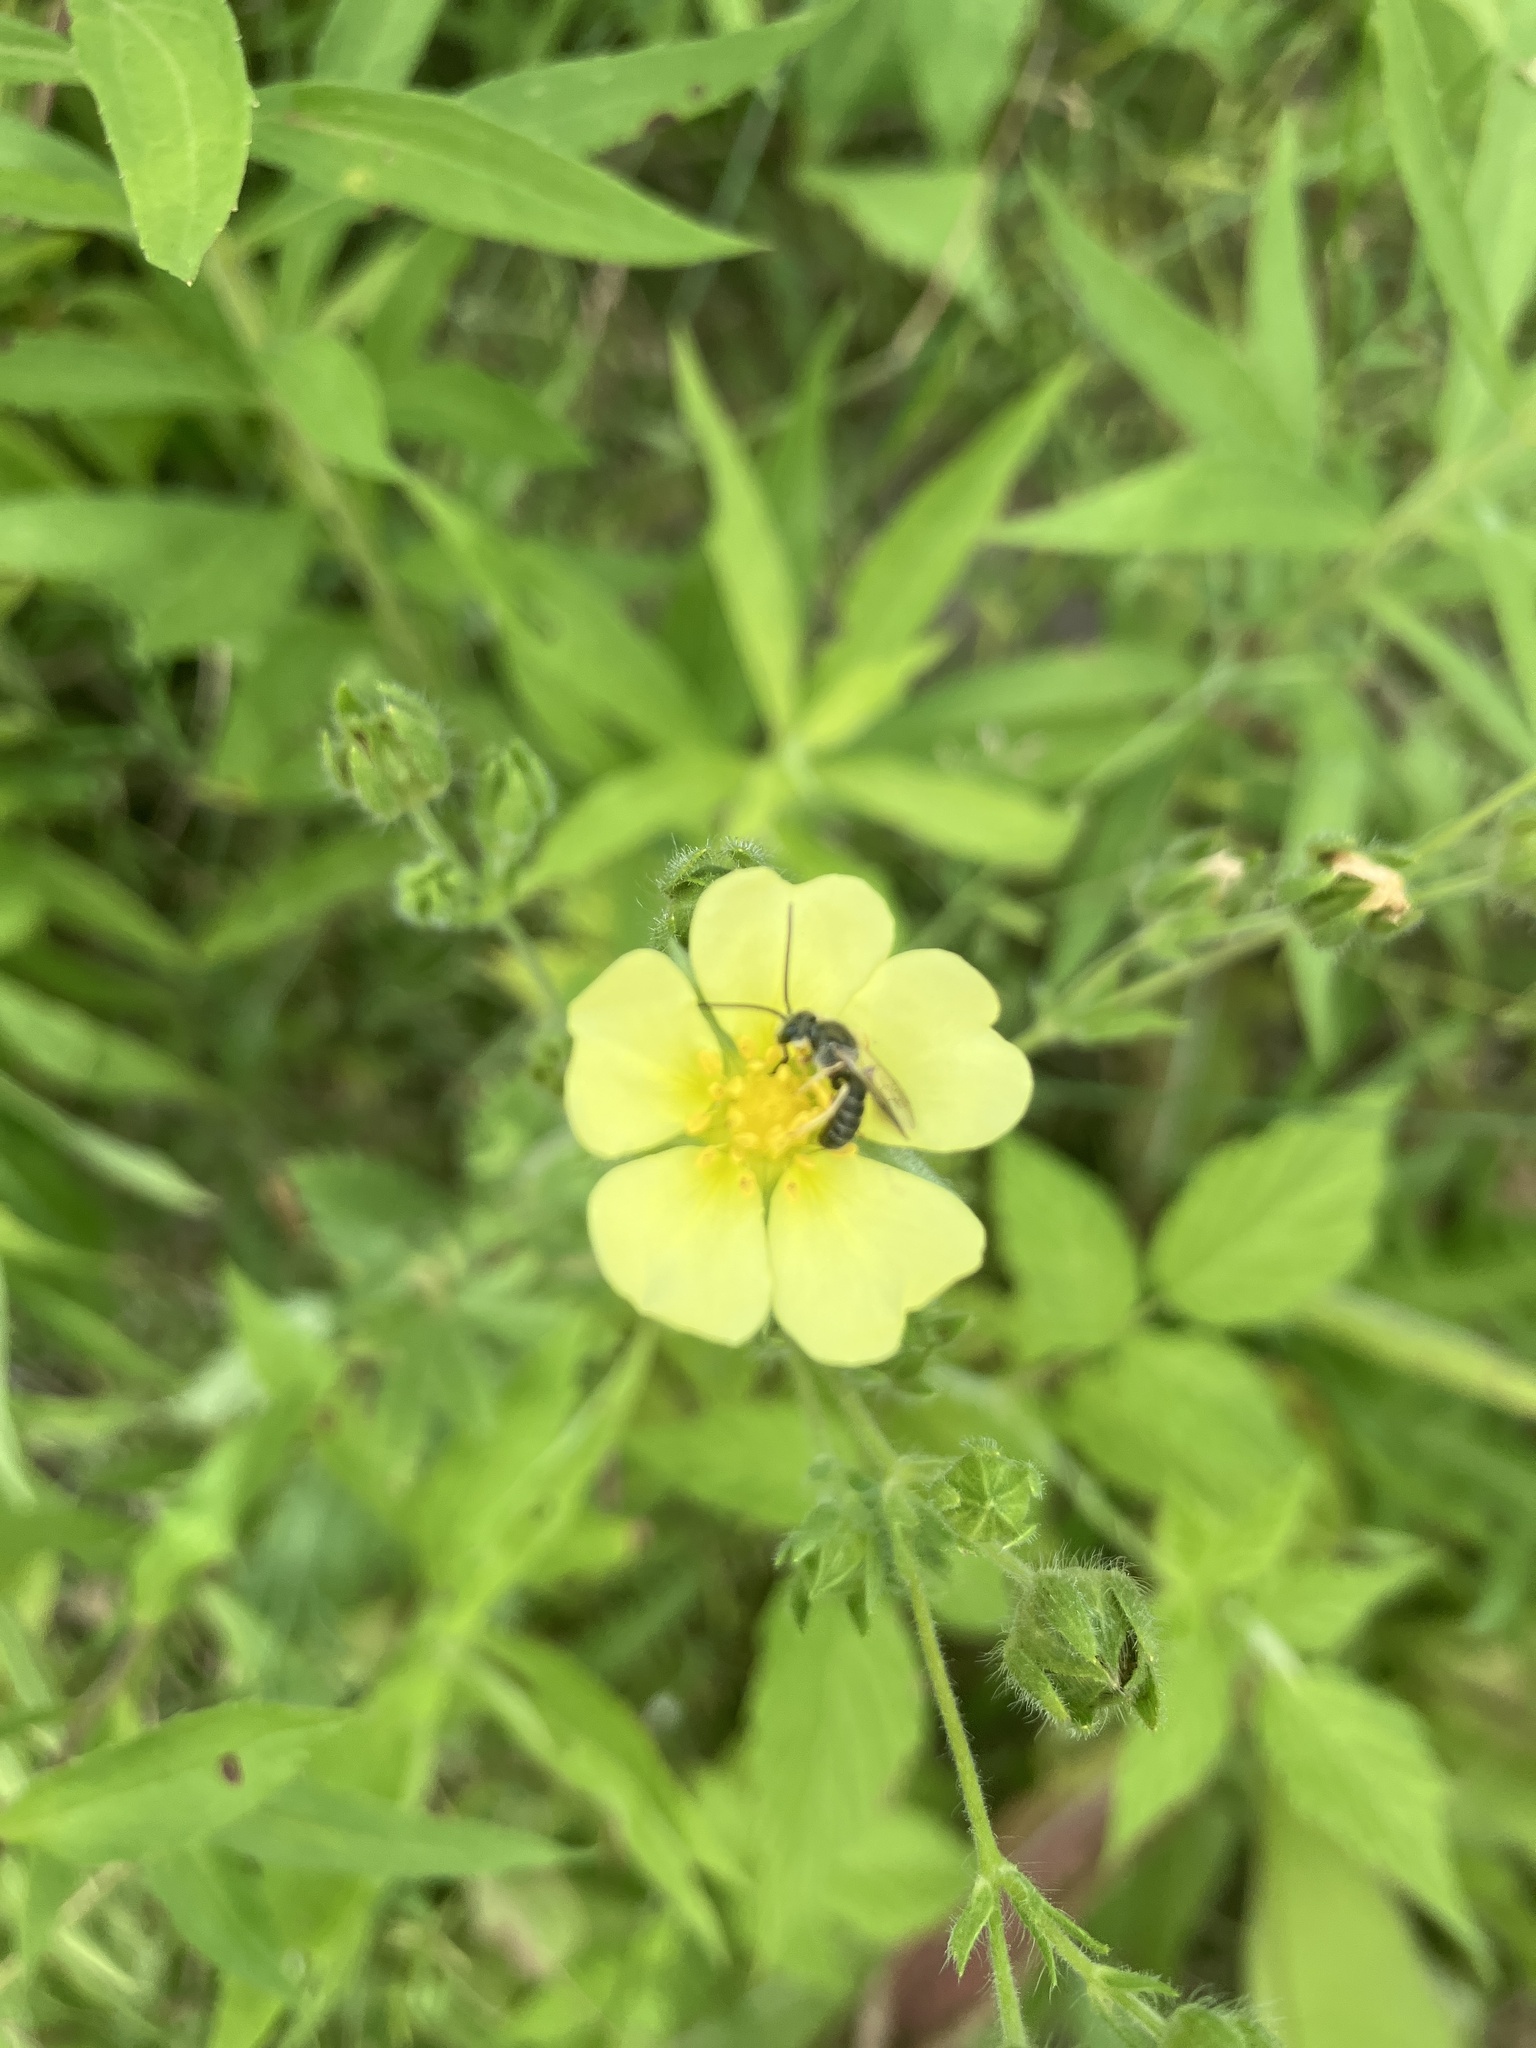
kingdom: Plantae
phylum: Tracheophyta
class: Magnoliopsida
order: Rosales
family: Rosaceae
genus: Potentilla
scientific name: Potentilla recta
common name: Sulphur cinquefoil
